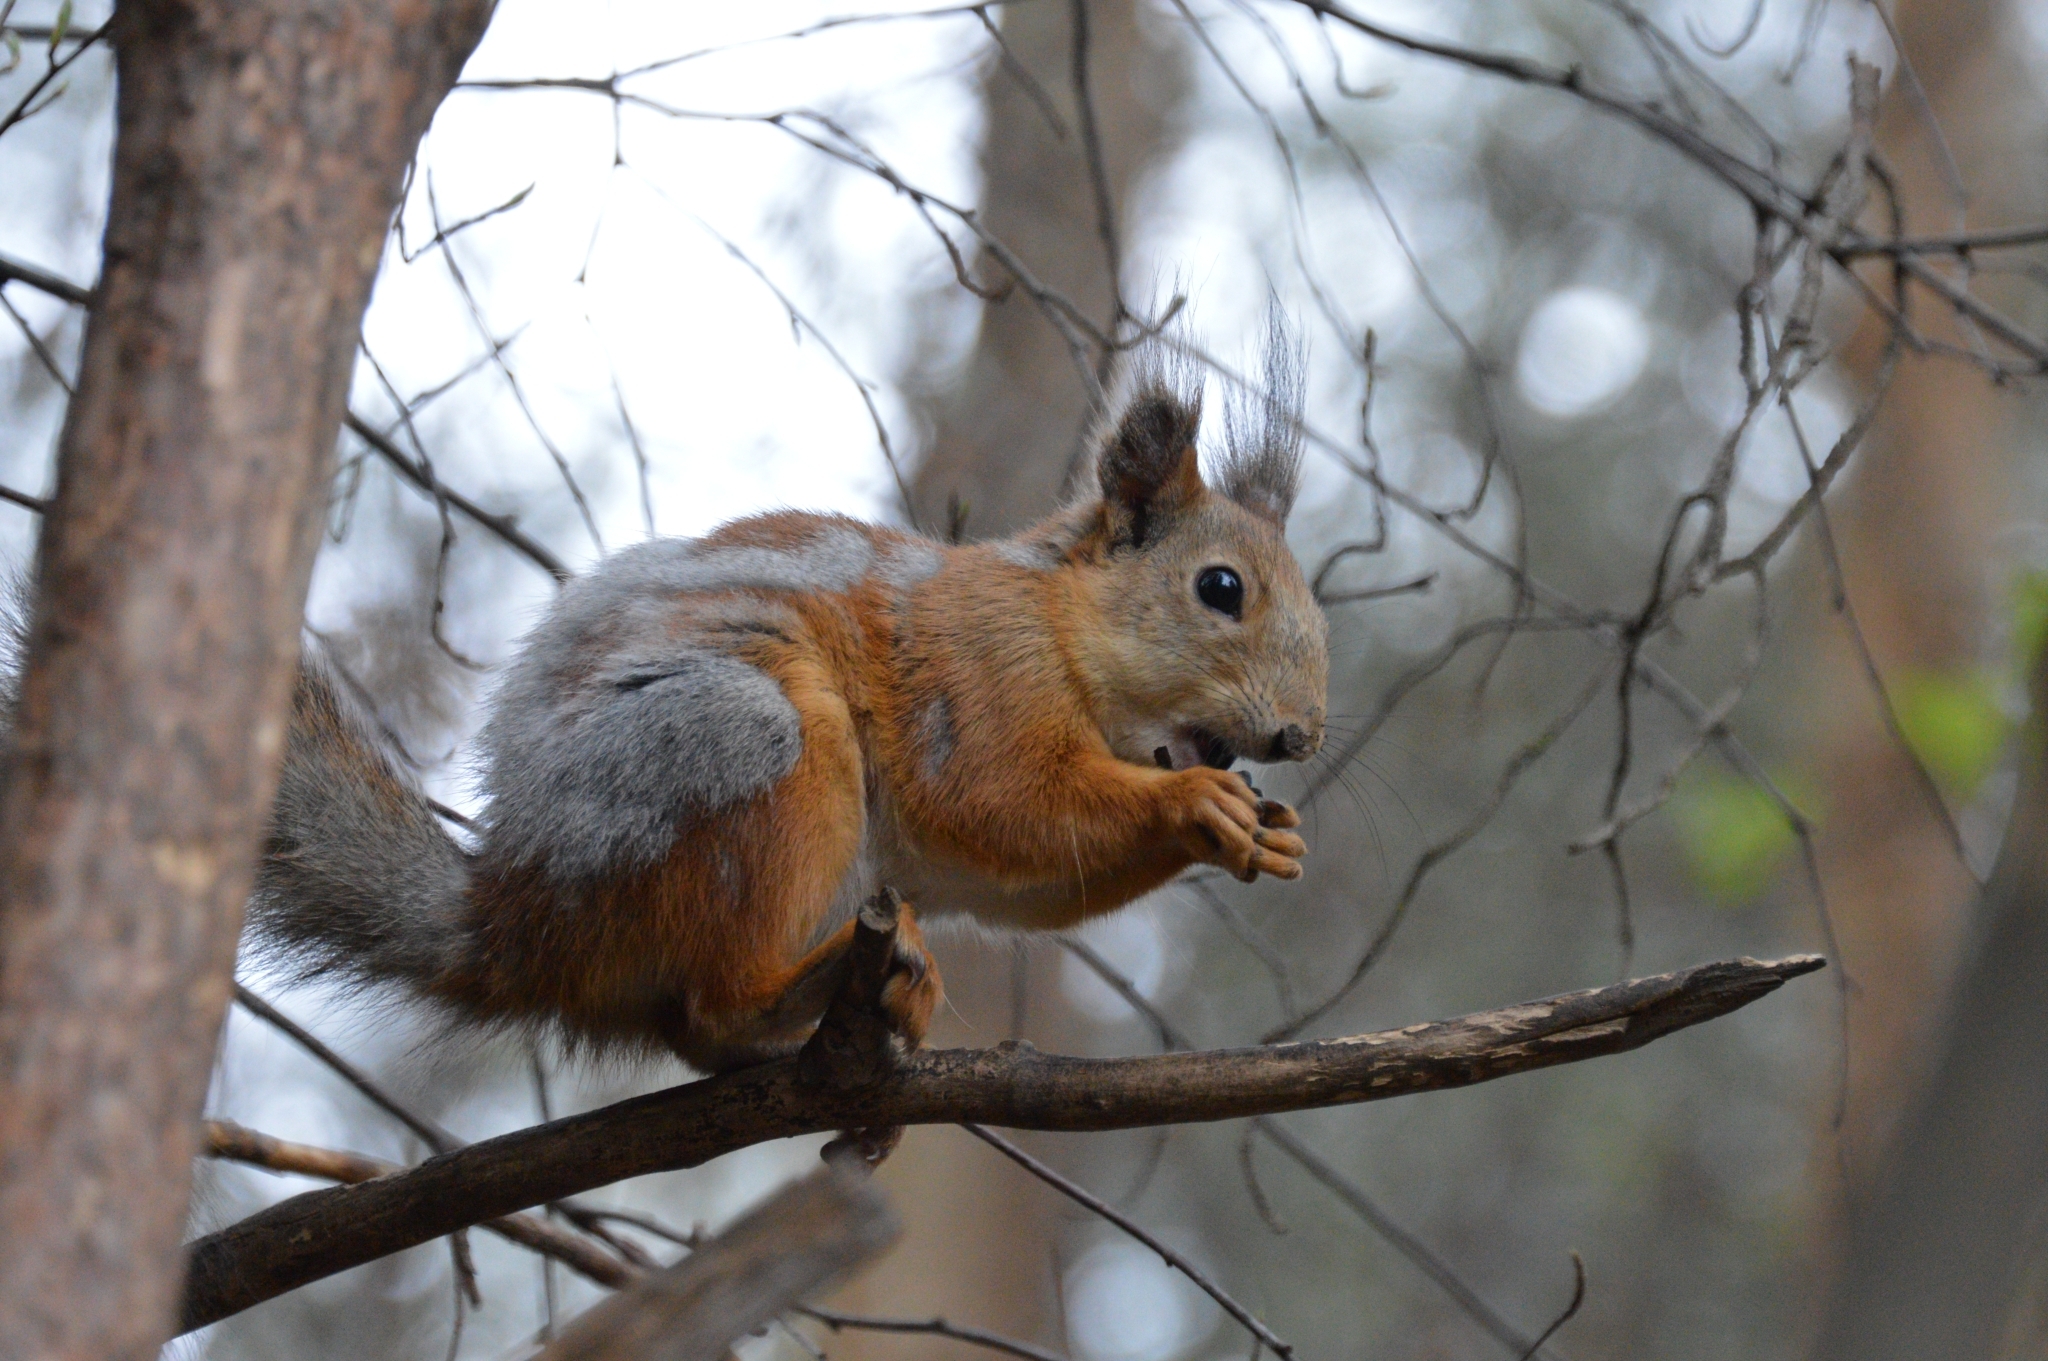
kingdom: Animalia
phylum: Chordata
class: Mammalia
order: Rodentia
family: Sciuridae
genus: Sciurus
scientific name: Sciurus vulgaris
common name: Eurasian red squirrel
